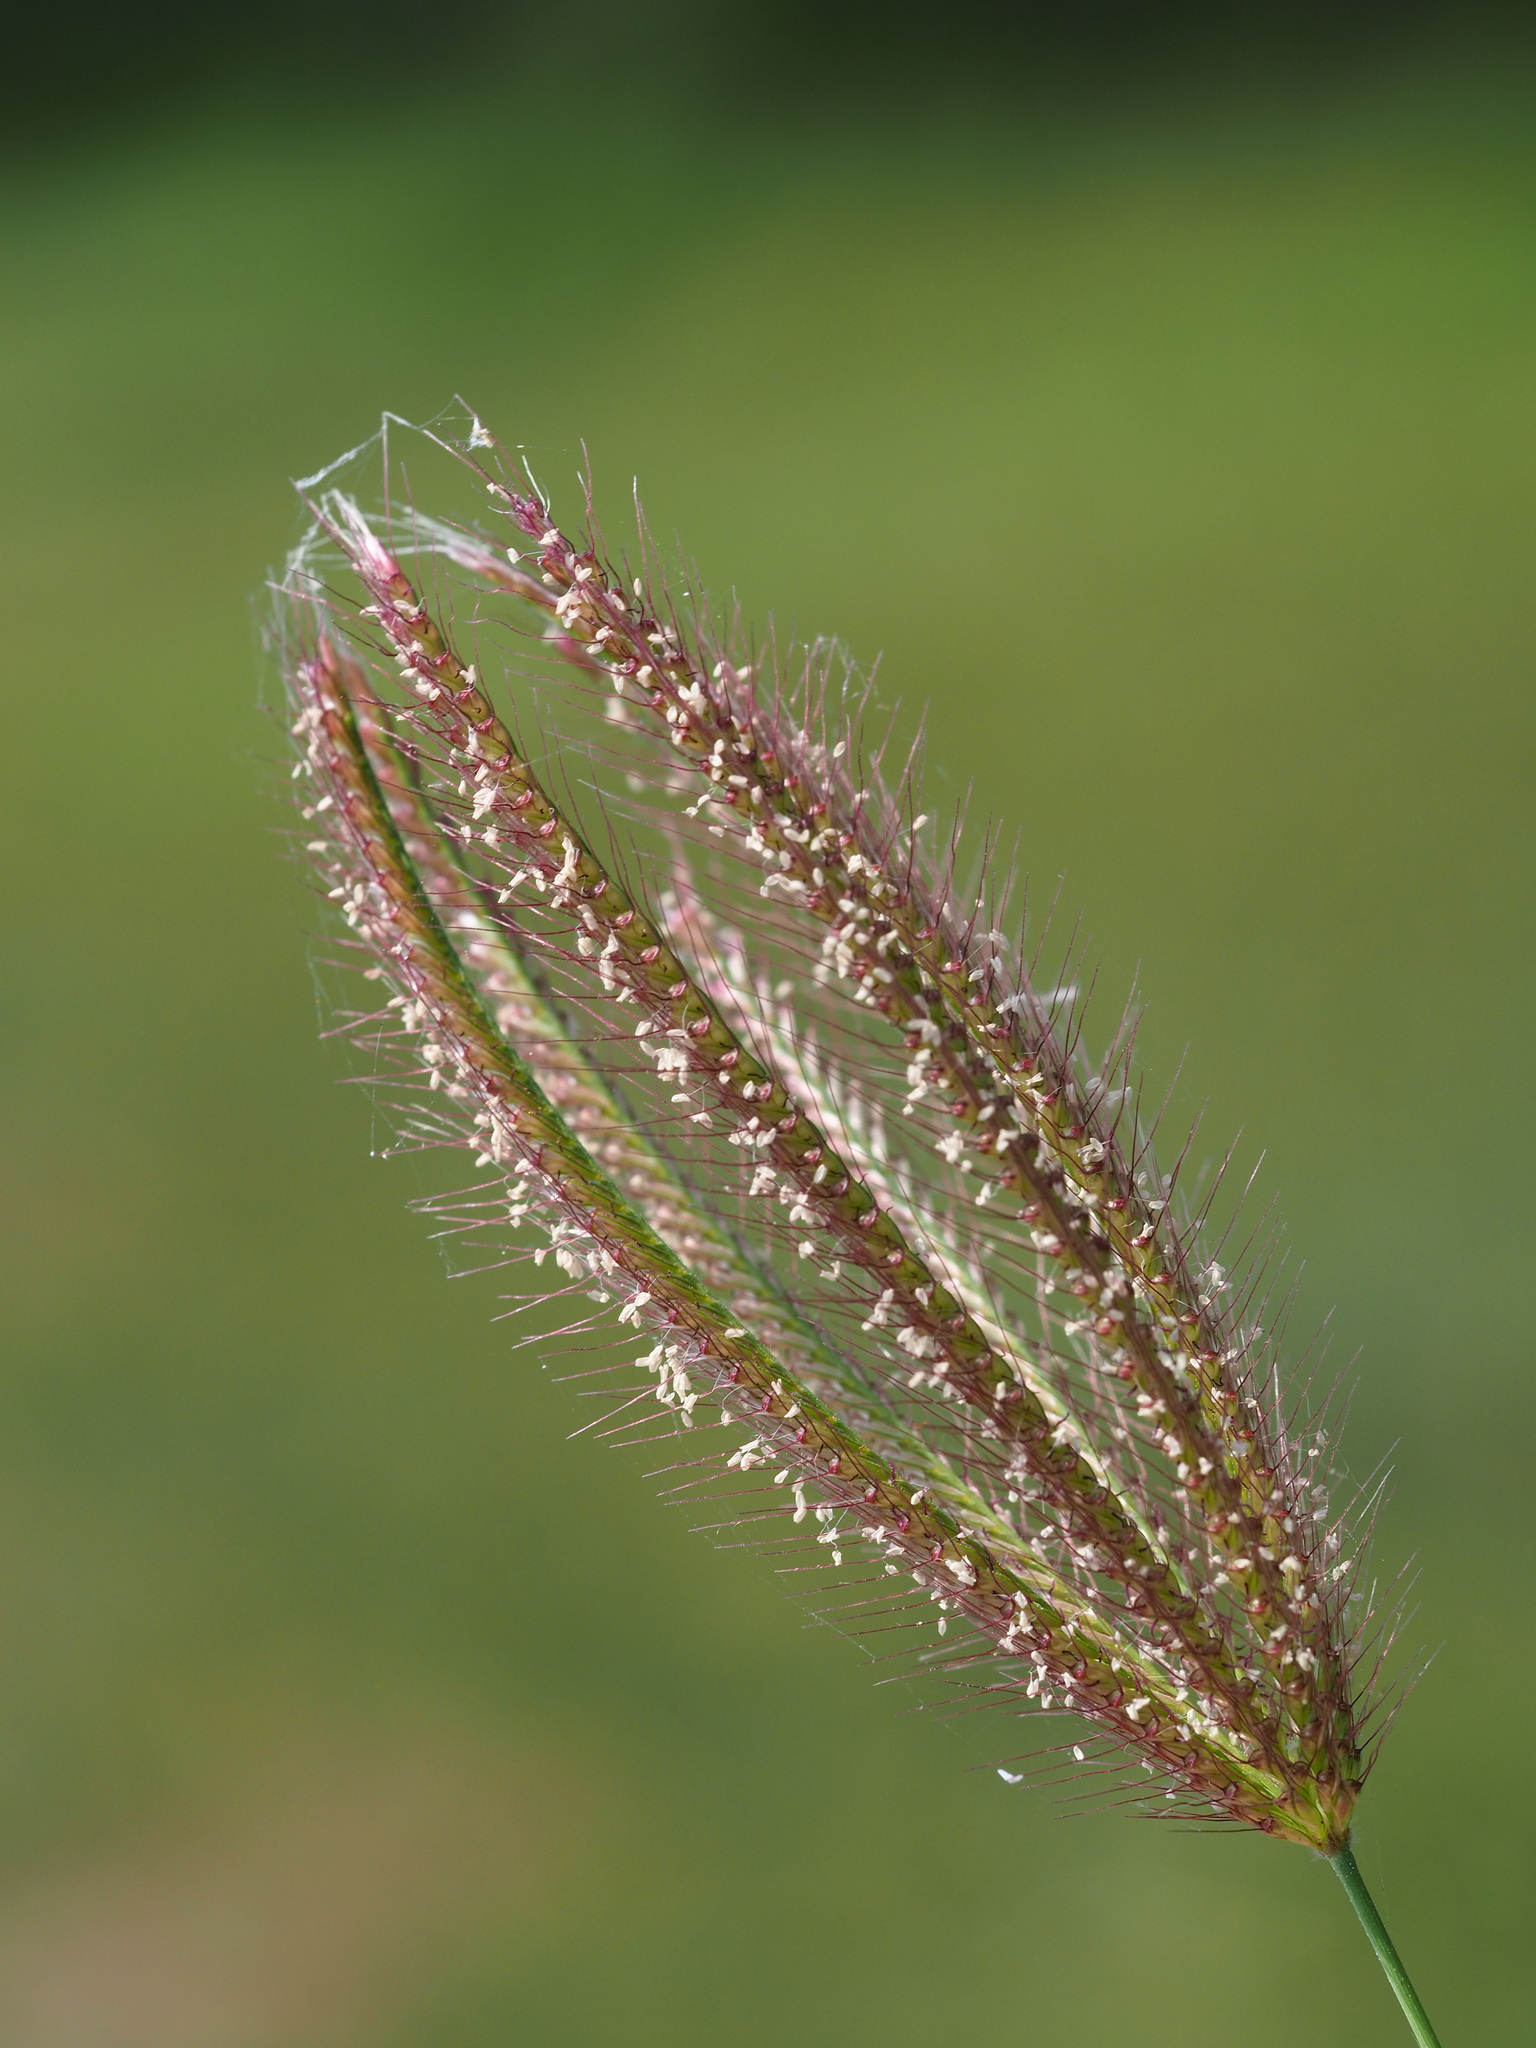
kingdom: Plantae
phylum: Tracheophyta
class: Liliopsida
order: Poales
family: Poaceae
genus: Chloris
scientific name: Chloris barbata
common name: Swollen fingergrass
